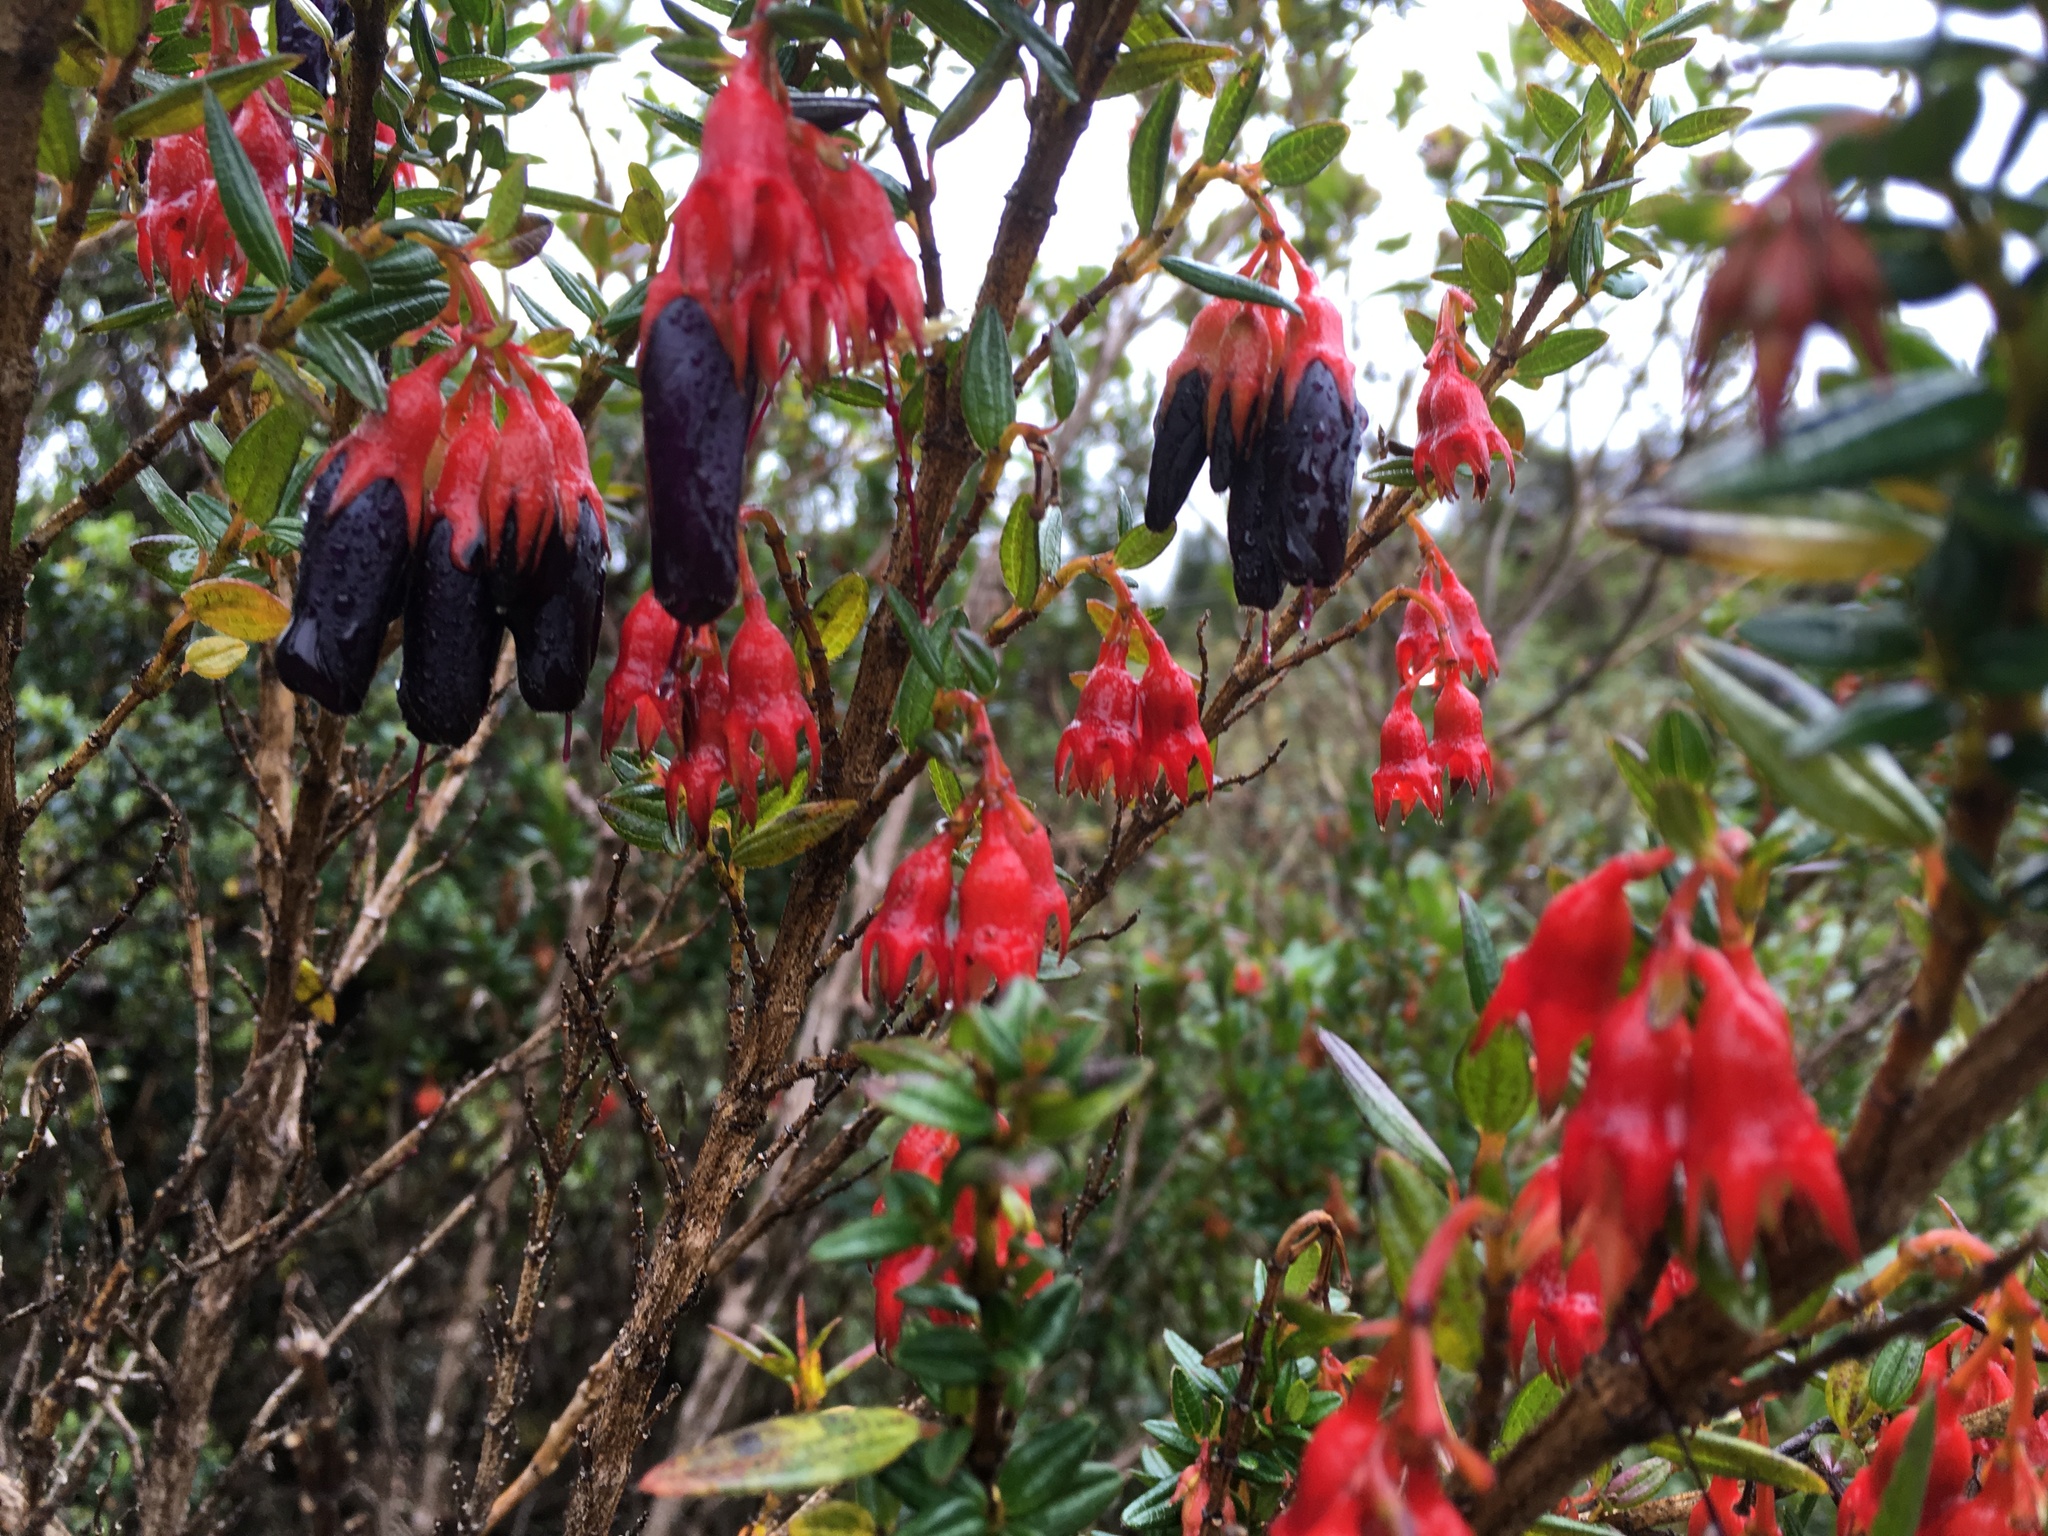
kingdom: Plantae
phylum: Tracheophyta
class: Magnoliopsida
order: Myrtales
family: Melastomataceae
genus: Brachyotum
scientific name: Brachyotum jamesonii
